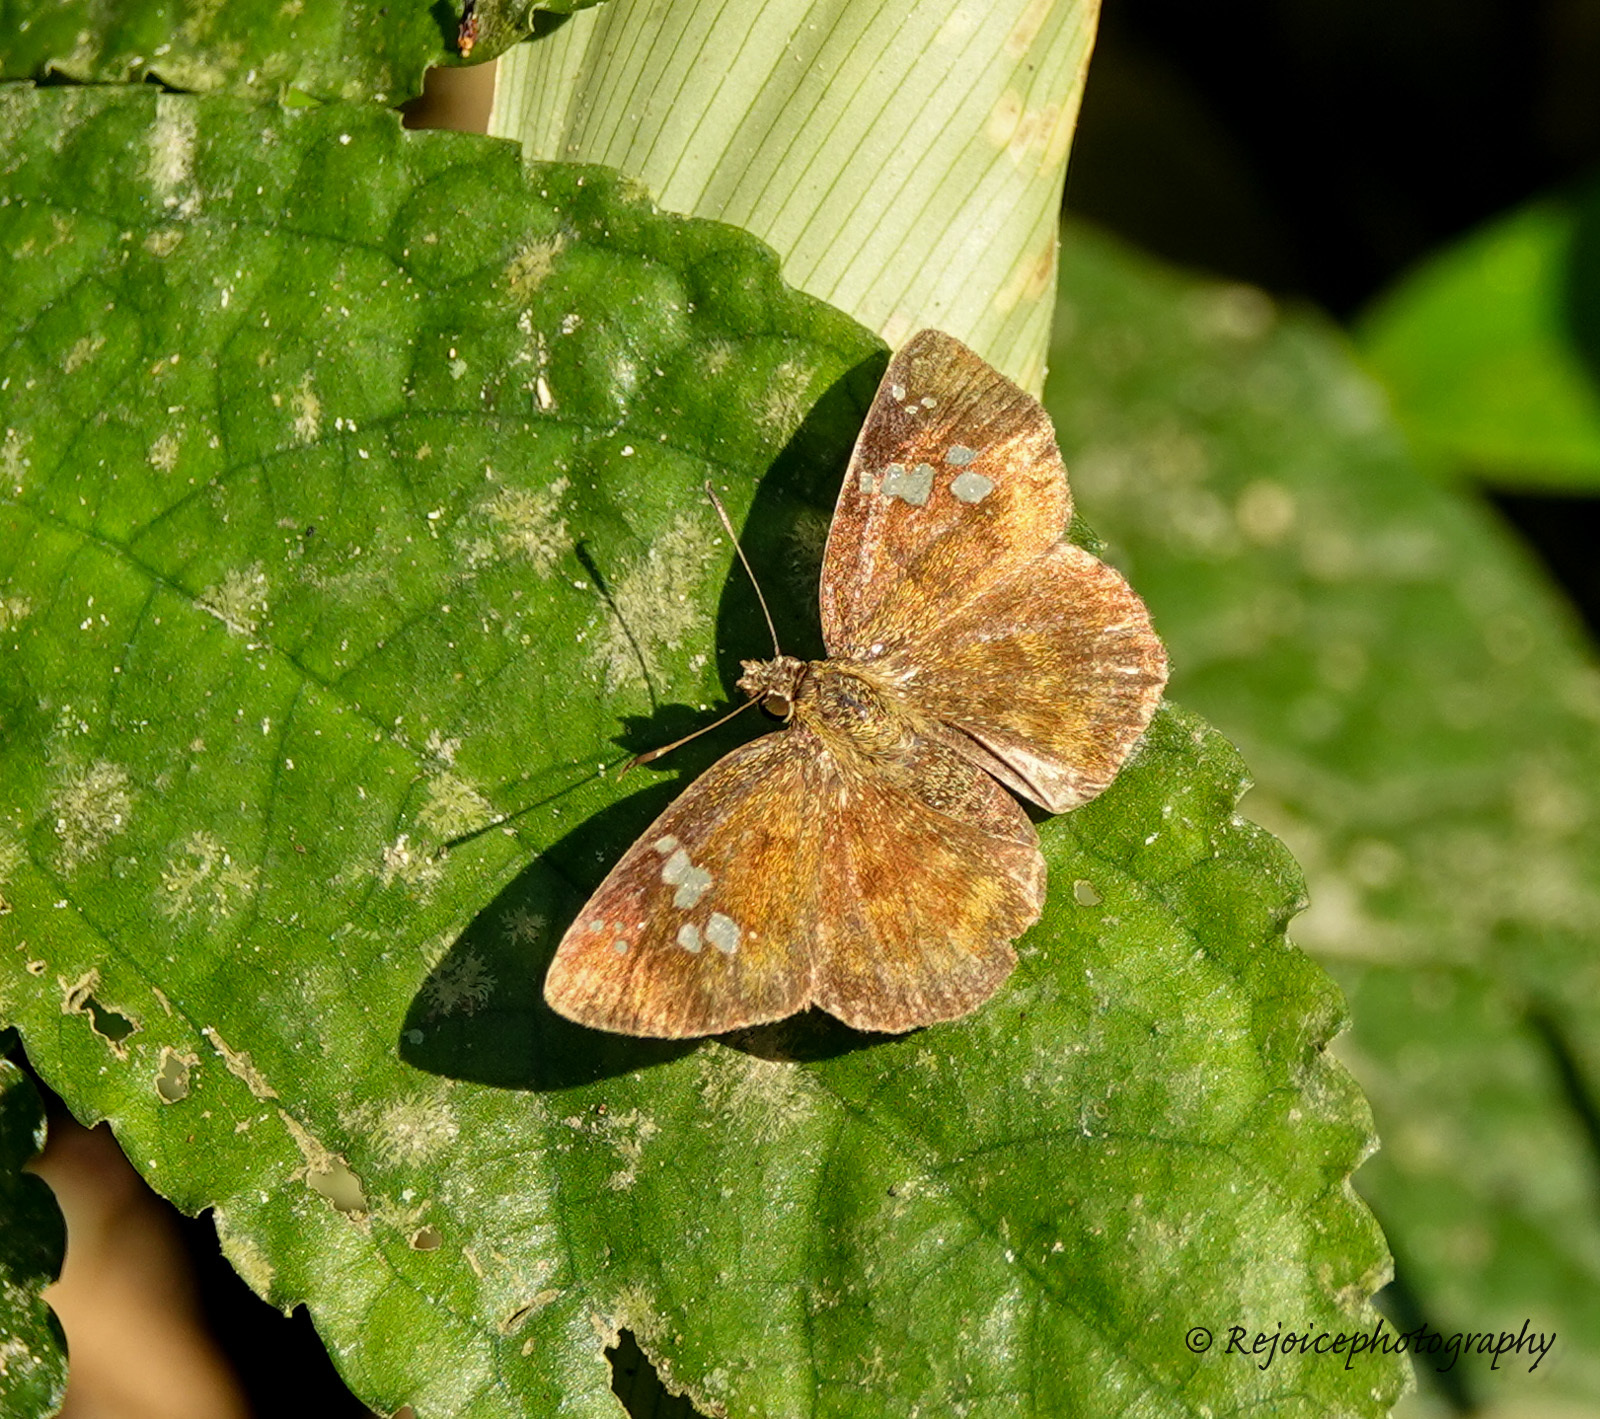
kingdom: Animalia
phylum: Arthropoda
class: Insecta
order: Lepidoptera
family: Hesperiidae
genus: Pseudocoladenia
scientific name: Pseudocoladenia dan
